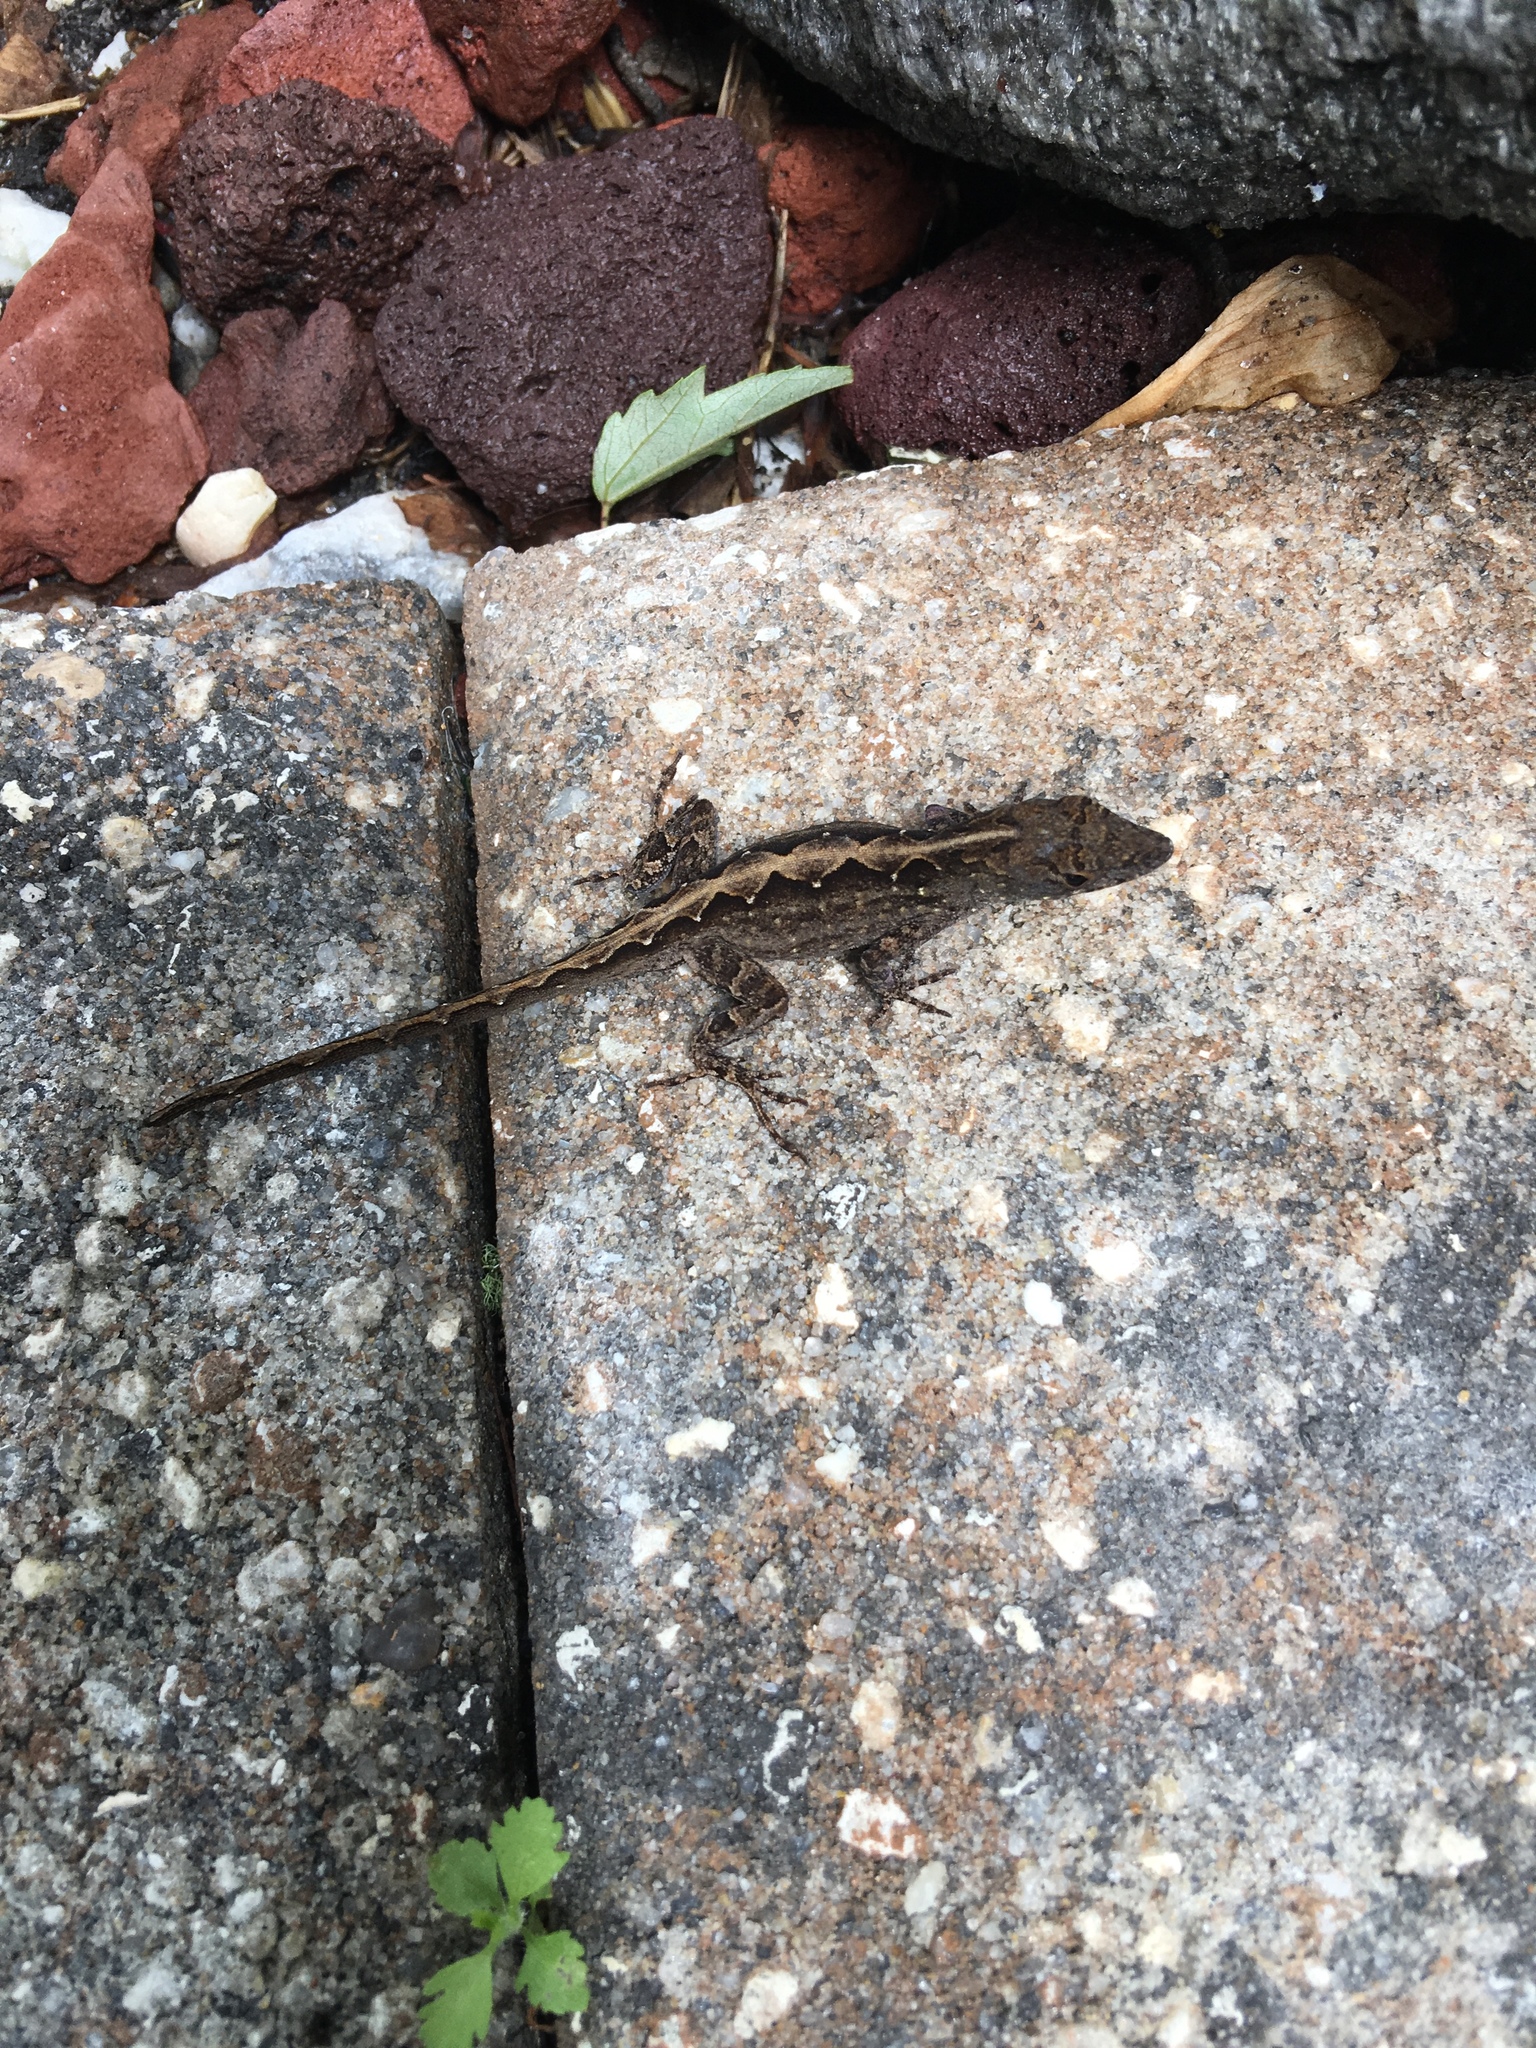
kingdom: Animalia
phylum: Chordata
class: Squamata
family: Dactyloidae
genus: Anolis
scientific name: Anolis sagrei
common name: Brown anole
